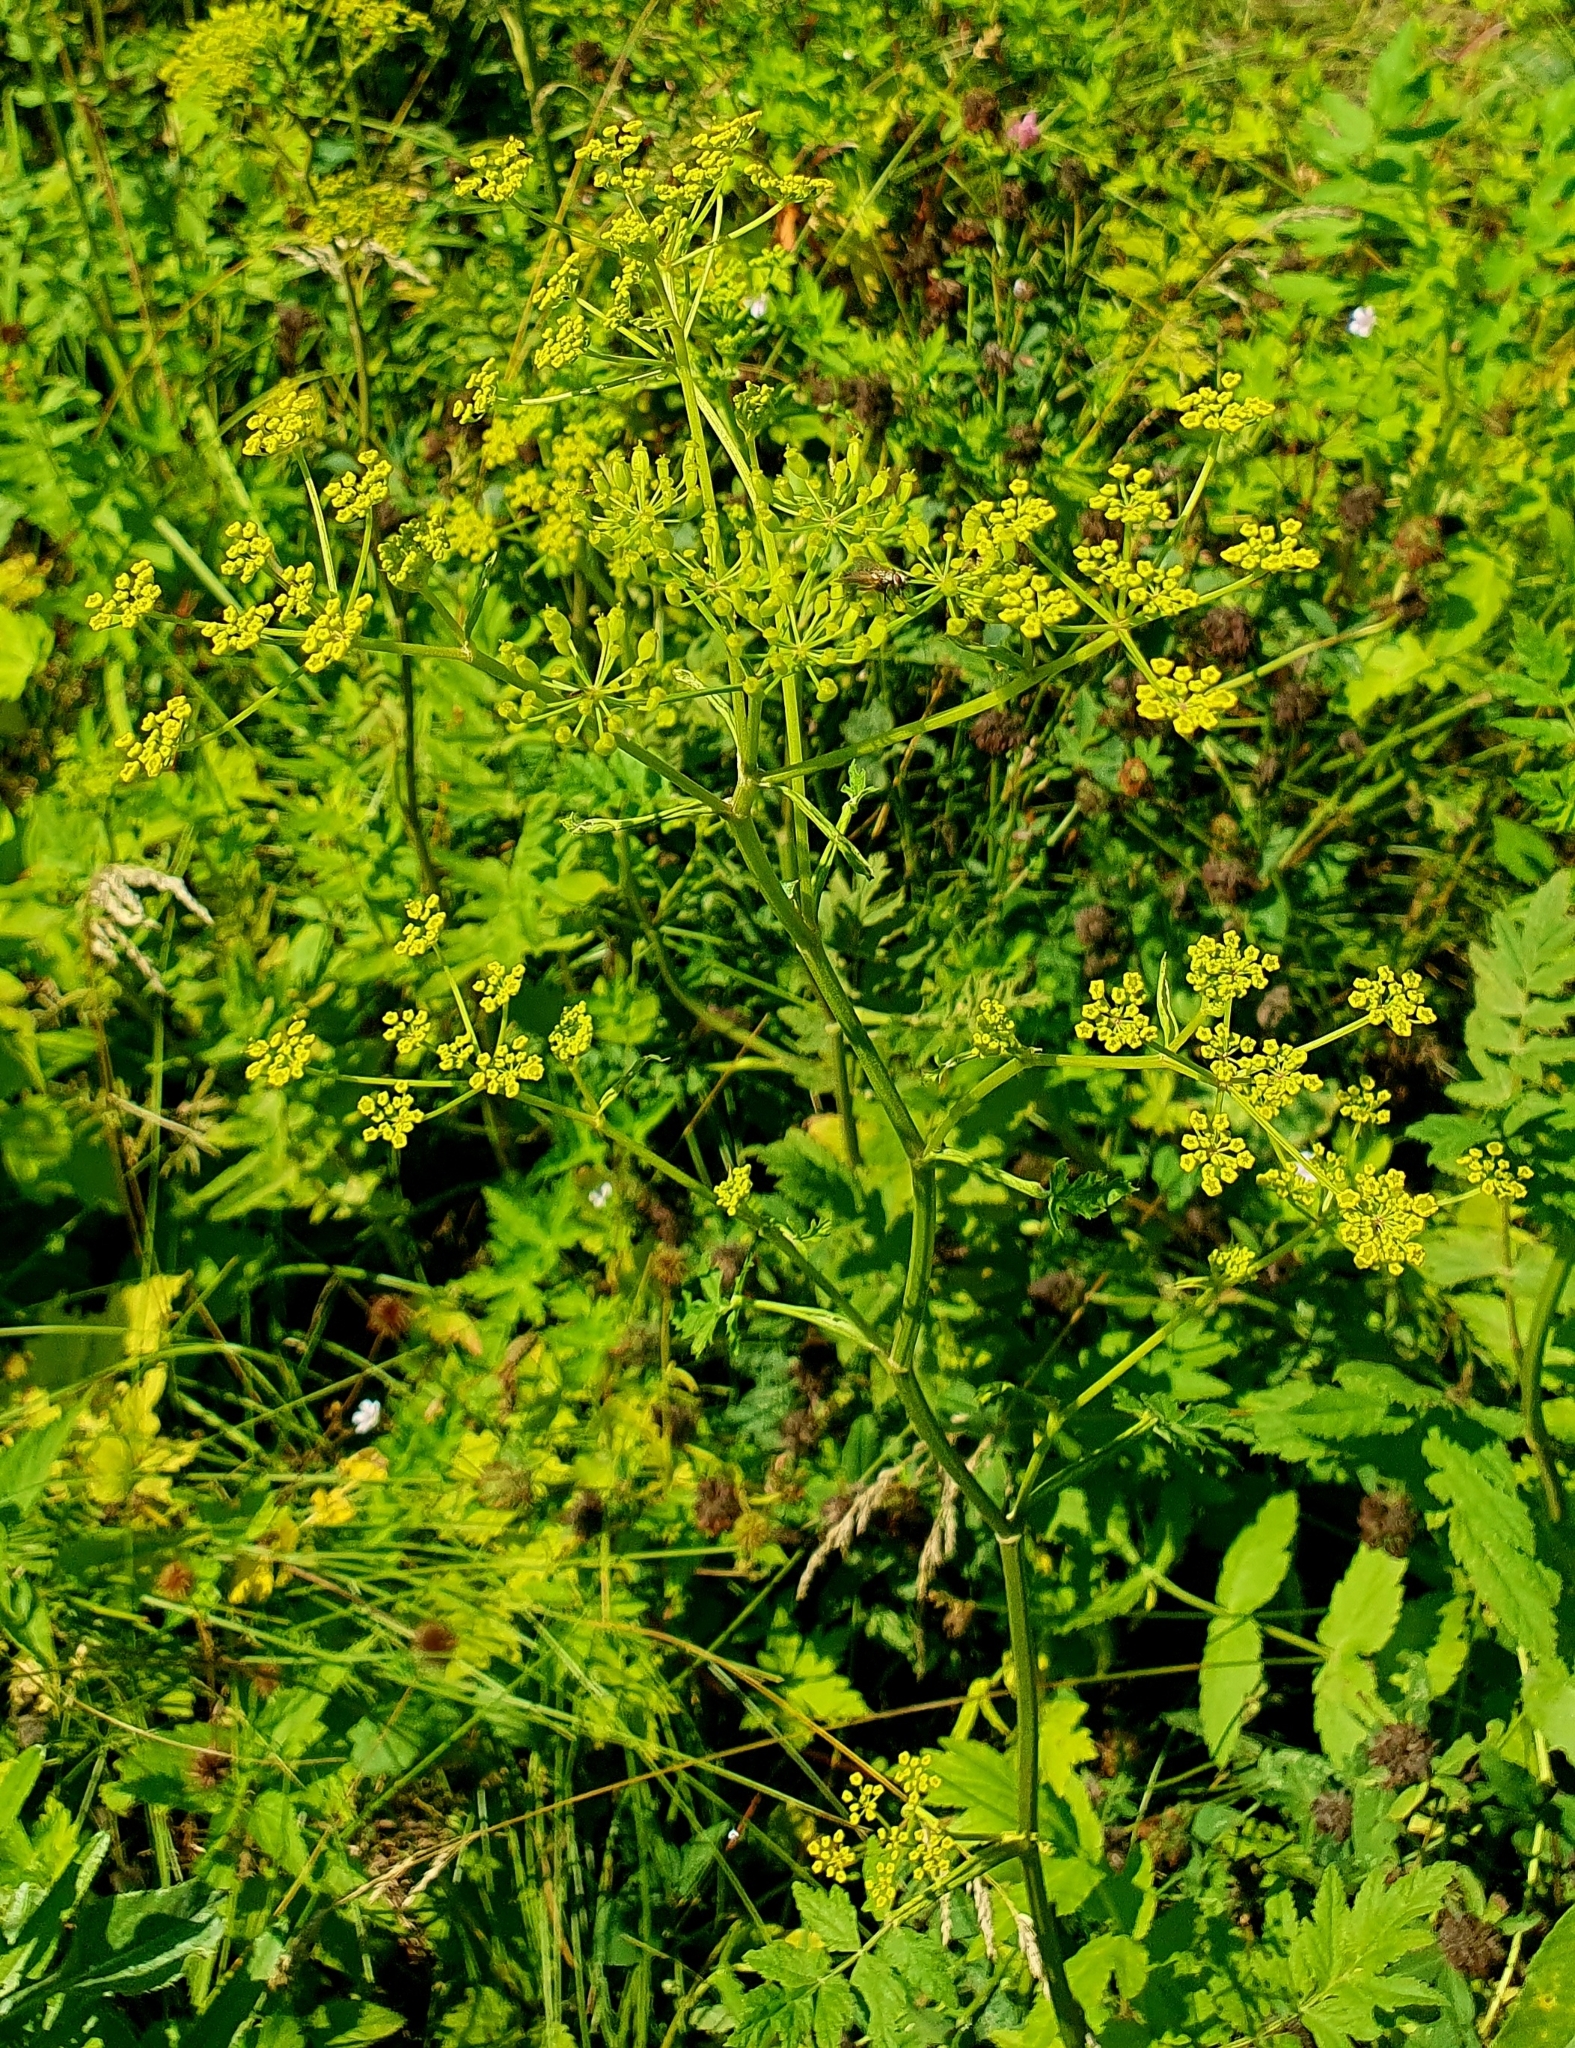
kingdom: Plantae
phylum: Tracheophyta
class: Magnoliopsida
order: Apiales
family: Apiaceae
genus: Pastinaca
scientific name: Pastinaca sativa
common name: Wild parsnip
